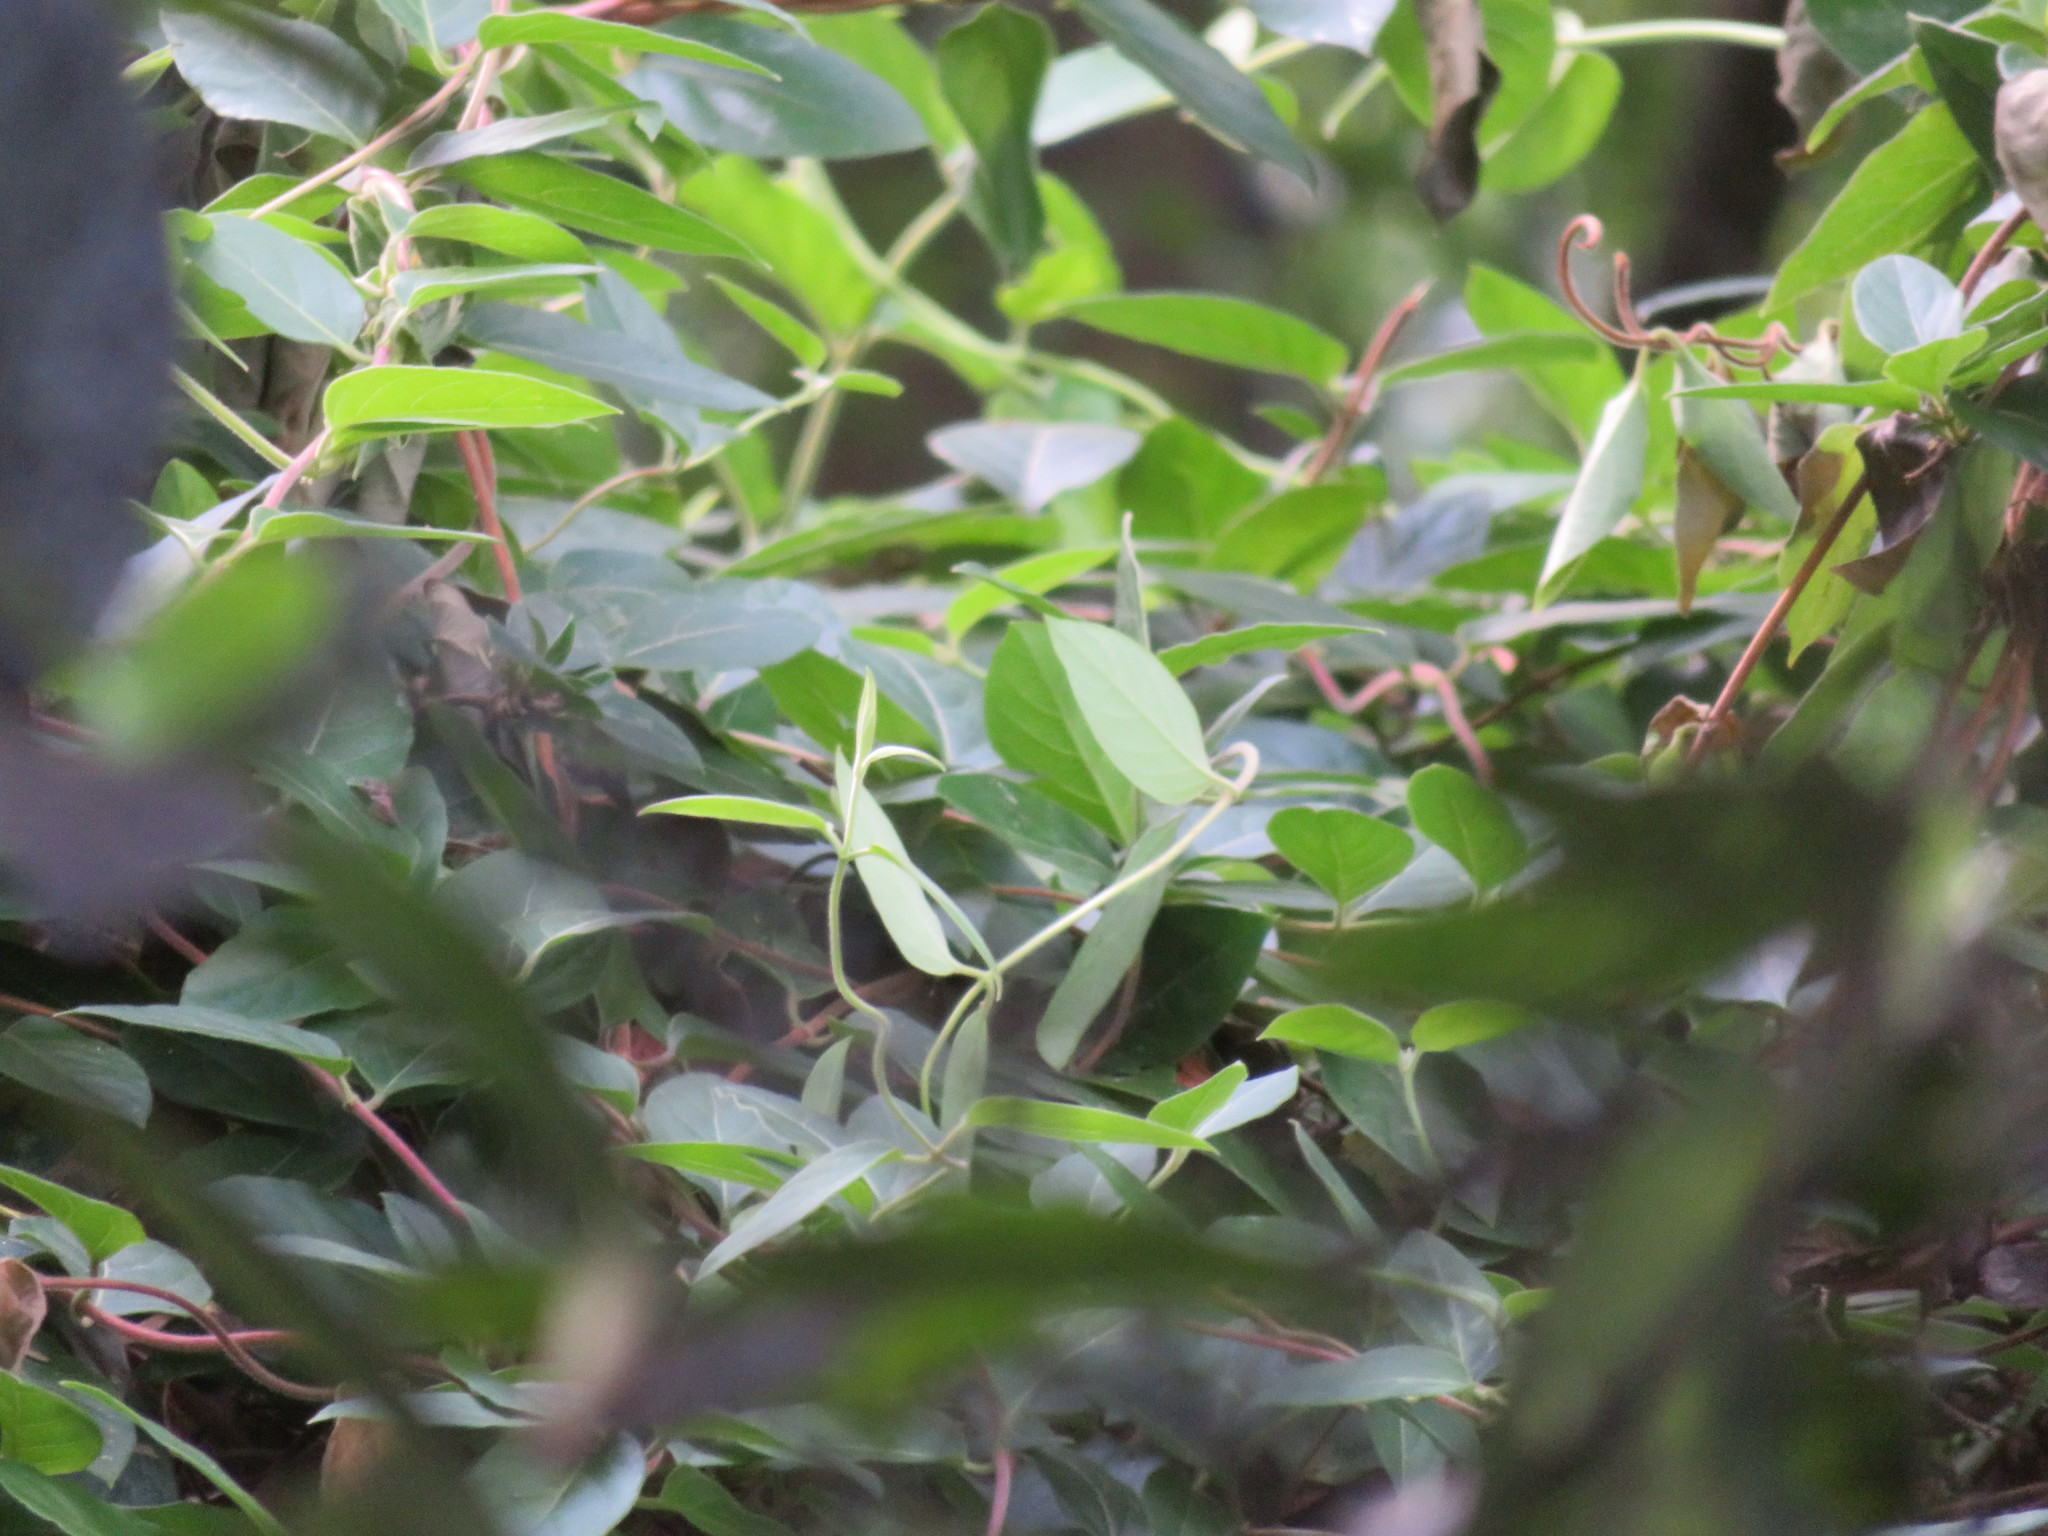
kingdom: Plantae
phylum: Tracheophyta
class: Magnoliopsida
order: Dipsacales
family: Caprifoliaceae
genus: Lonicera
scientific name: Lonicera japonica
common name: Japanese honeysuckle
